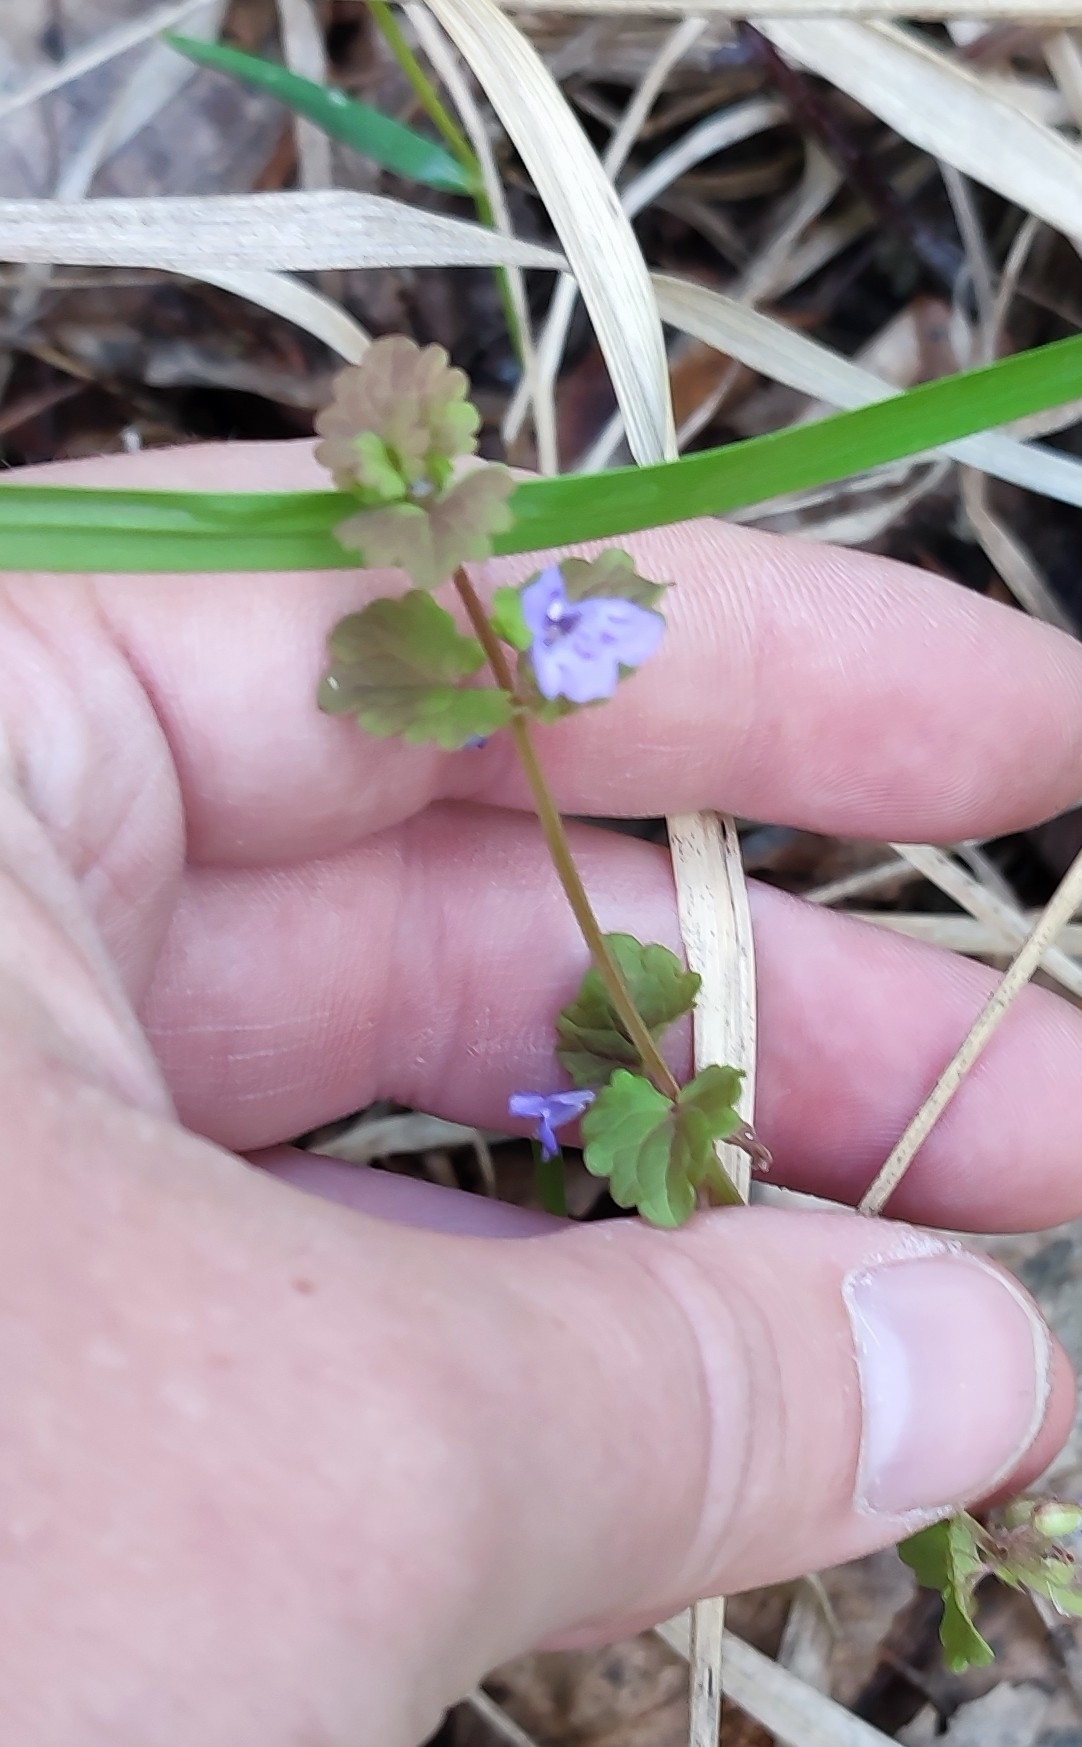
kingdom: Plantae
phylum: Tracheophyta
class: Magnoliopsida
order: Lamiales
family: Lamiaceae
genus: Glechoma
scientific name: Glechoma hederacea
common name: Ground ivy
